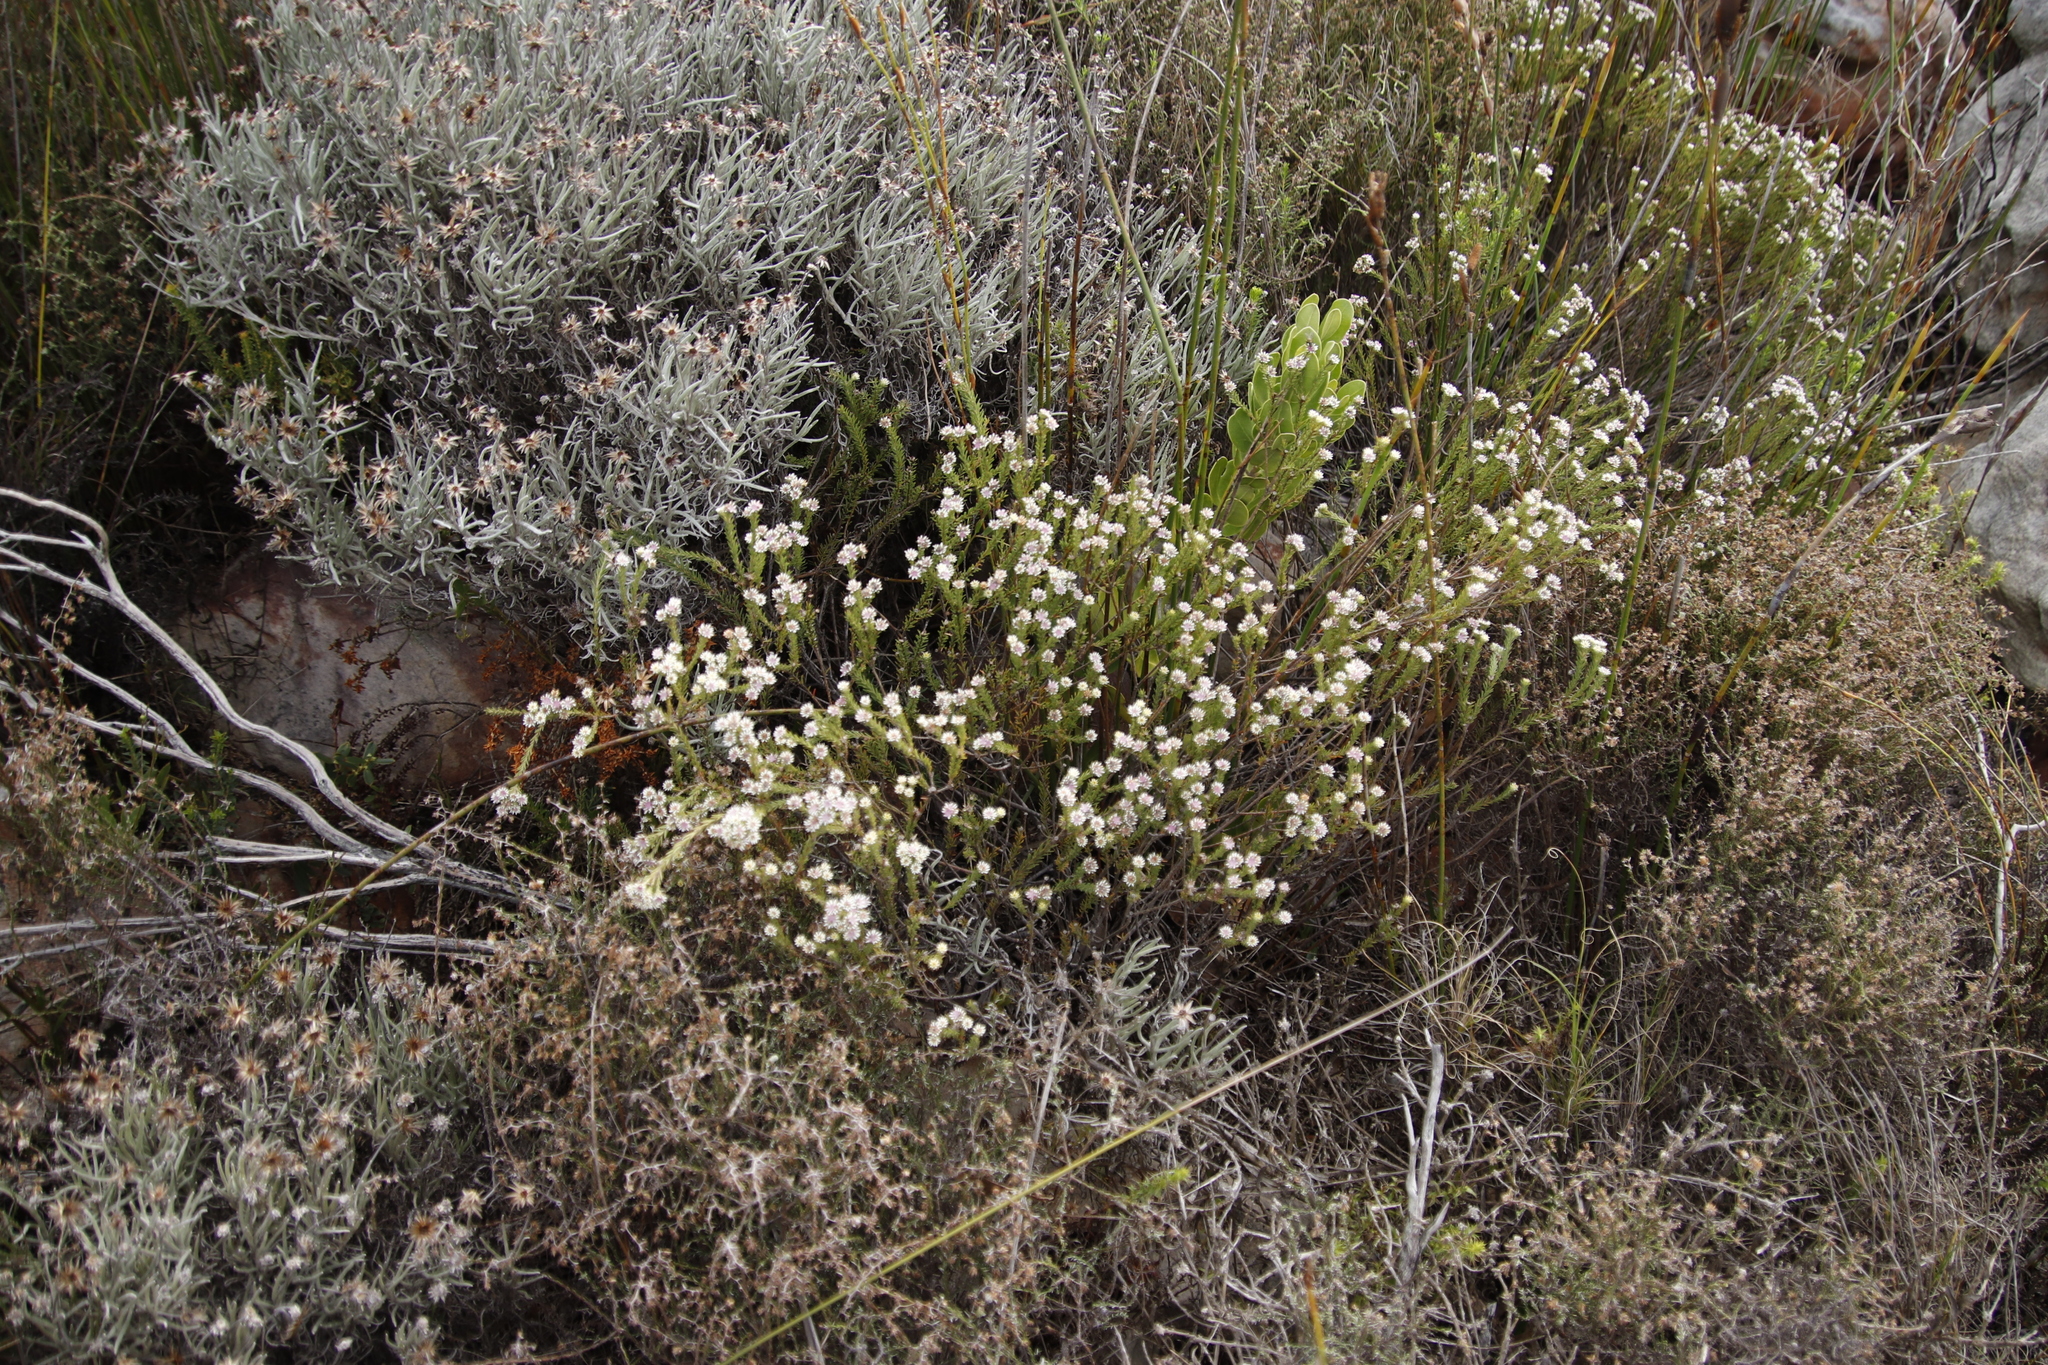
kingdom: Plantae
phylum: Tracheophyta
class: Magnoliopsida
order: Bruniales
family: Bruniaceae
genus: Staavia
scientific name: Staavia radiata
